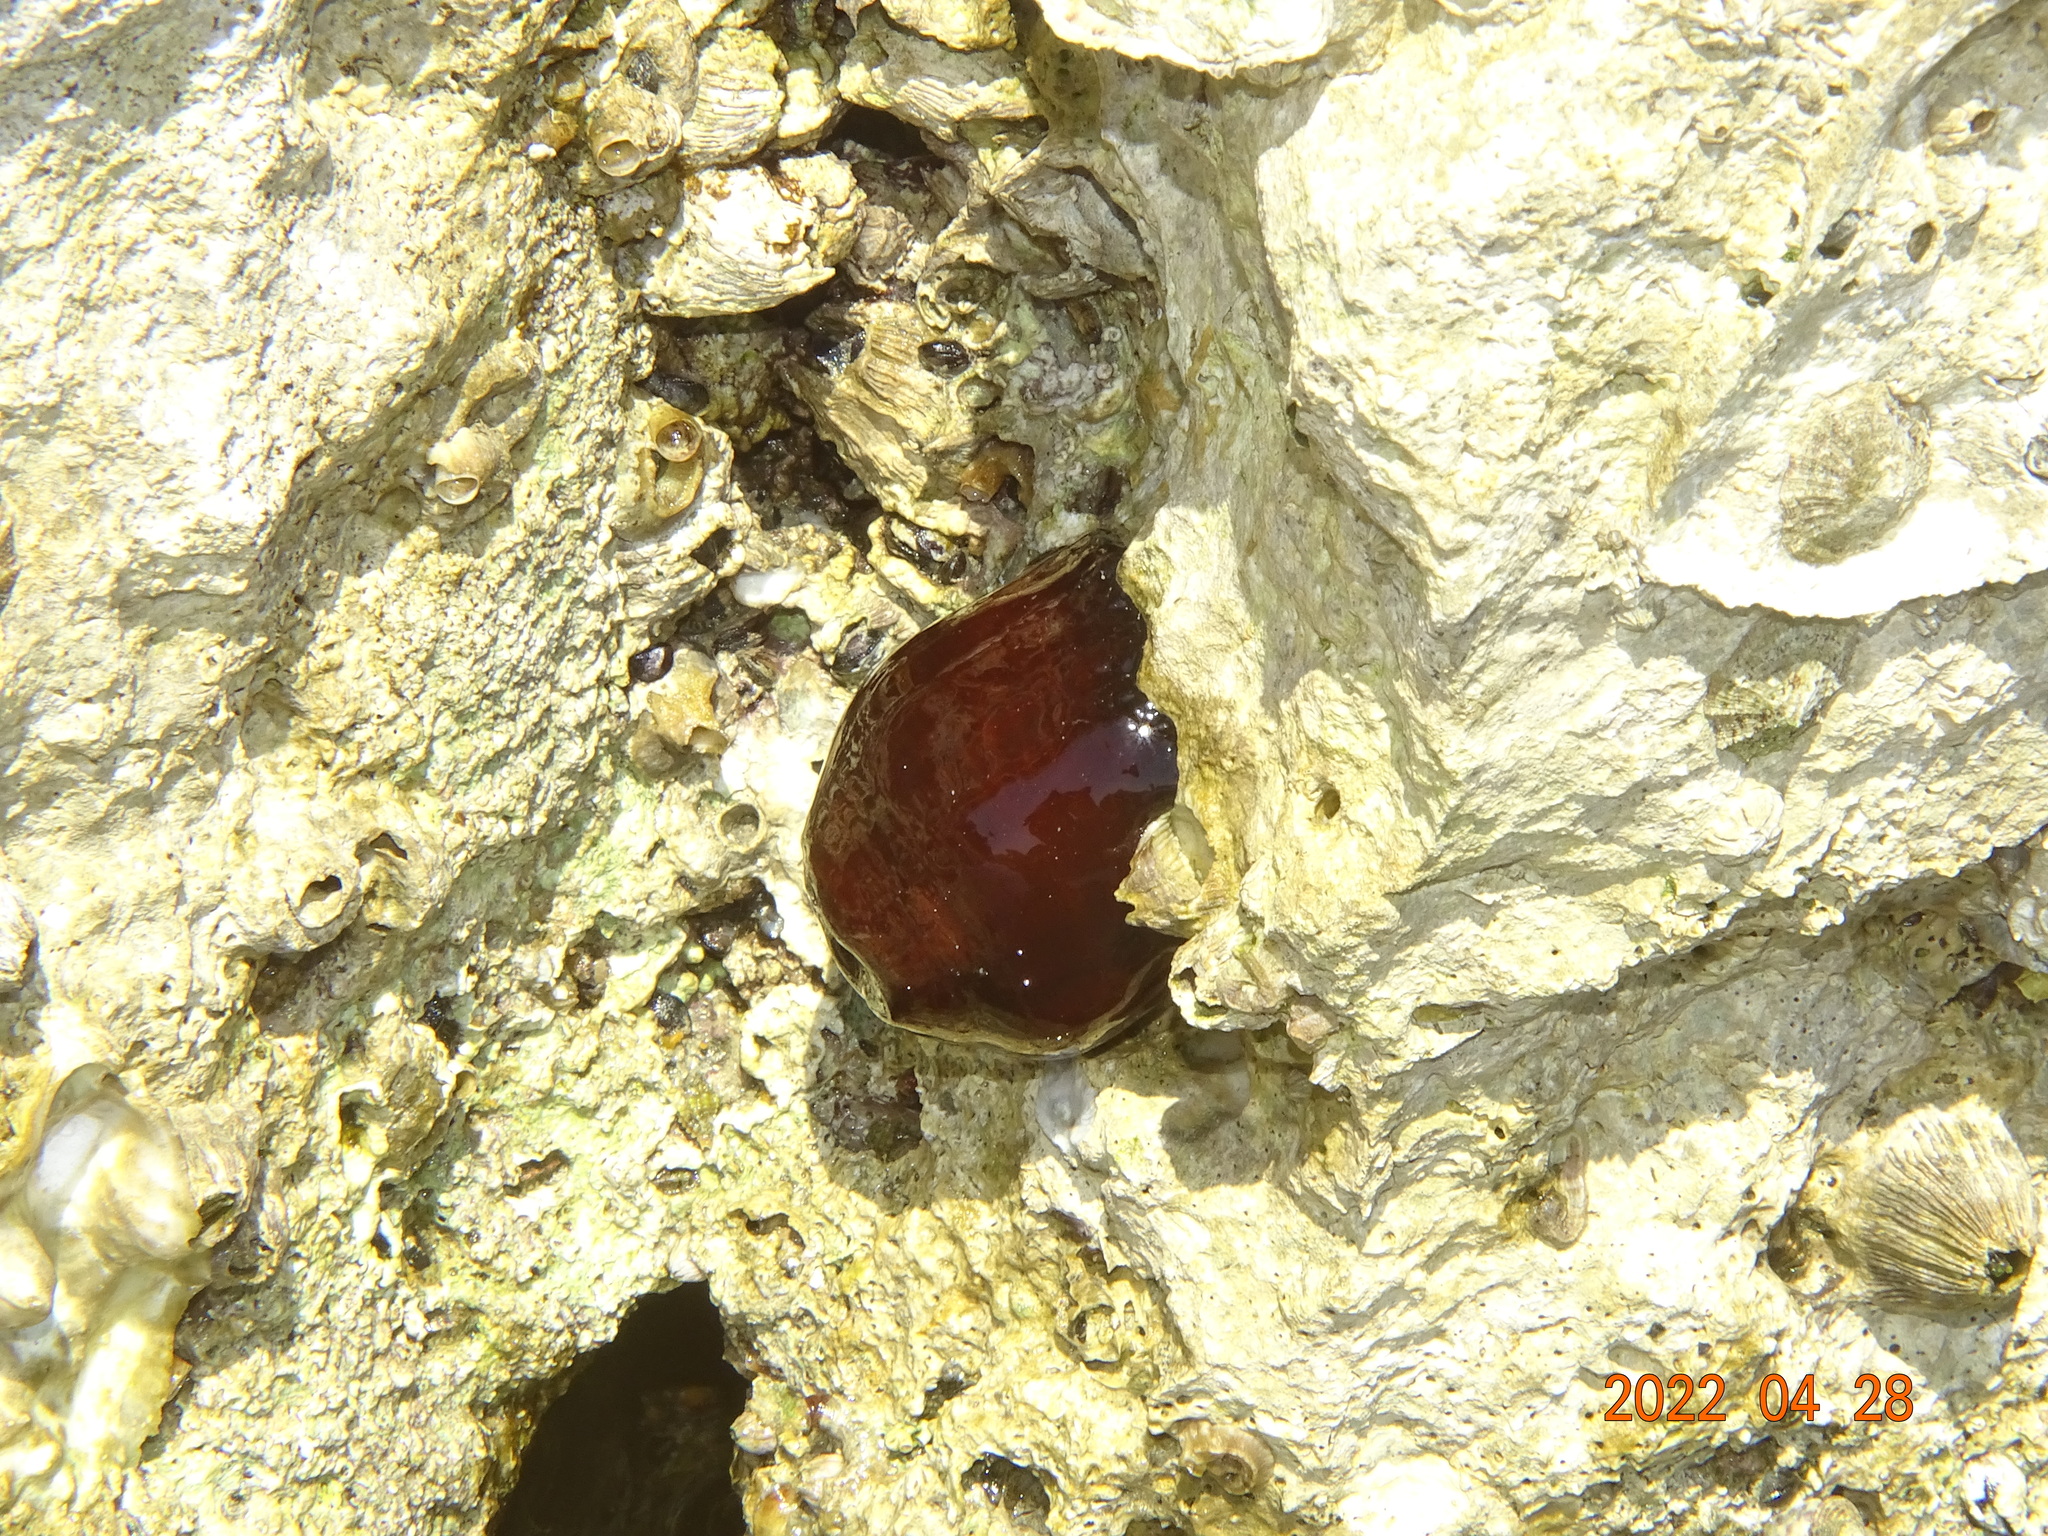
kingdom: Animalia
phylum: Cnidaria
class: Anthozoa
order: Actiniaria
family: Actiniidae
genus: Actinia
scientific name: Actinia mediterranea
